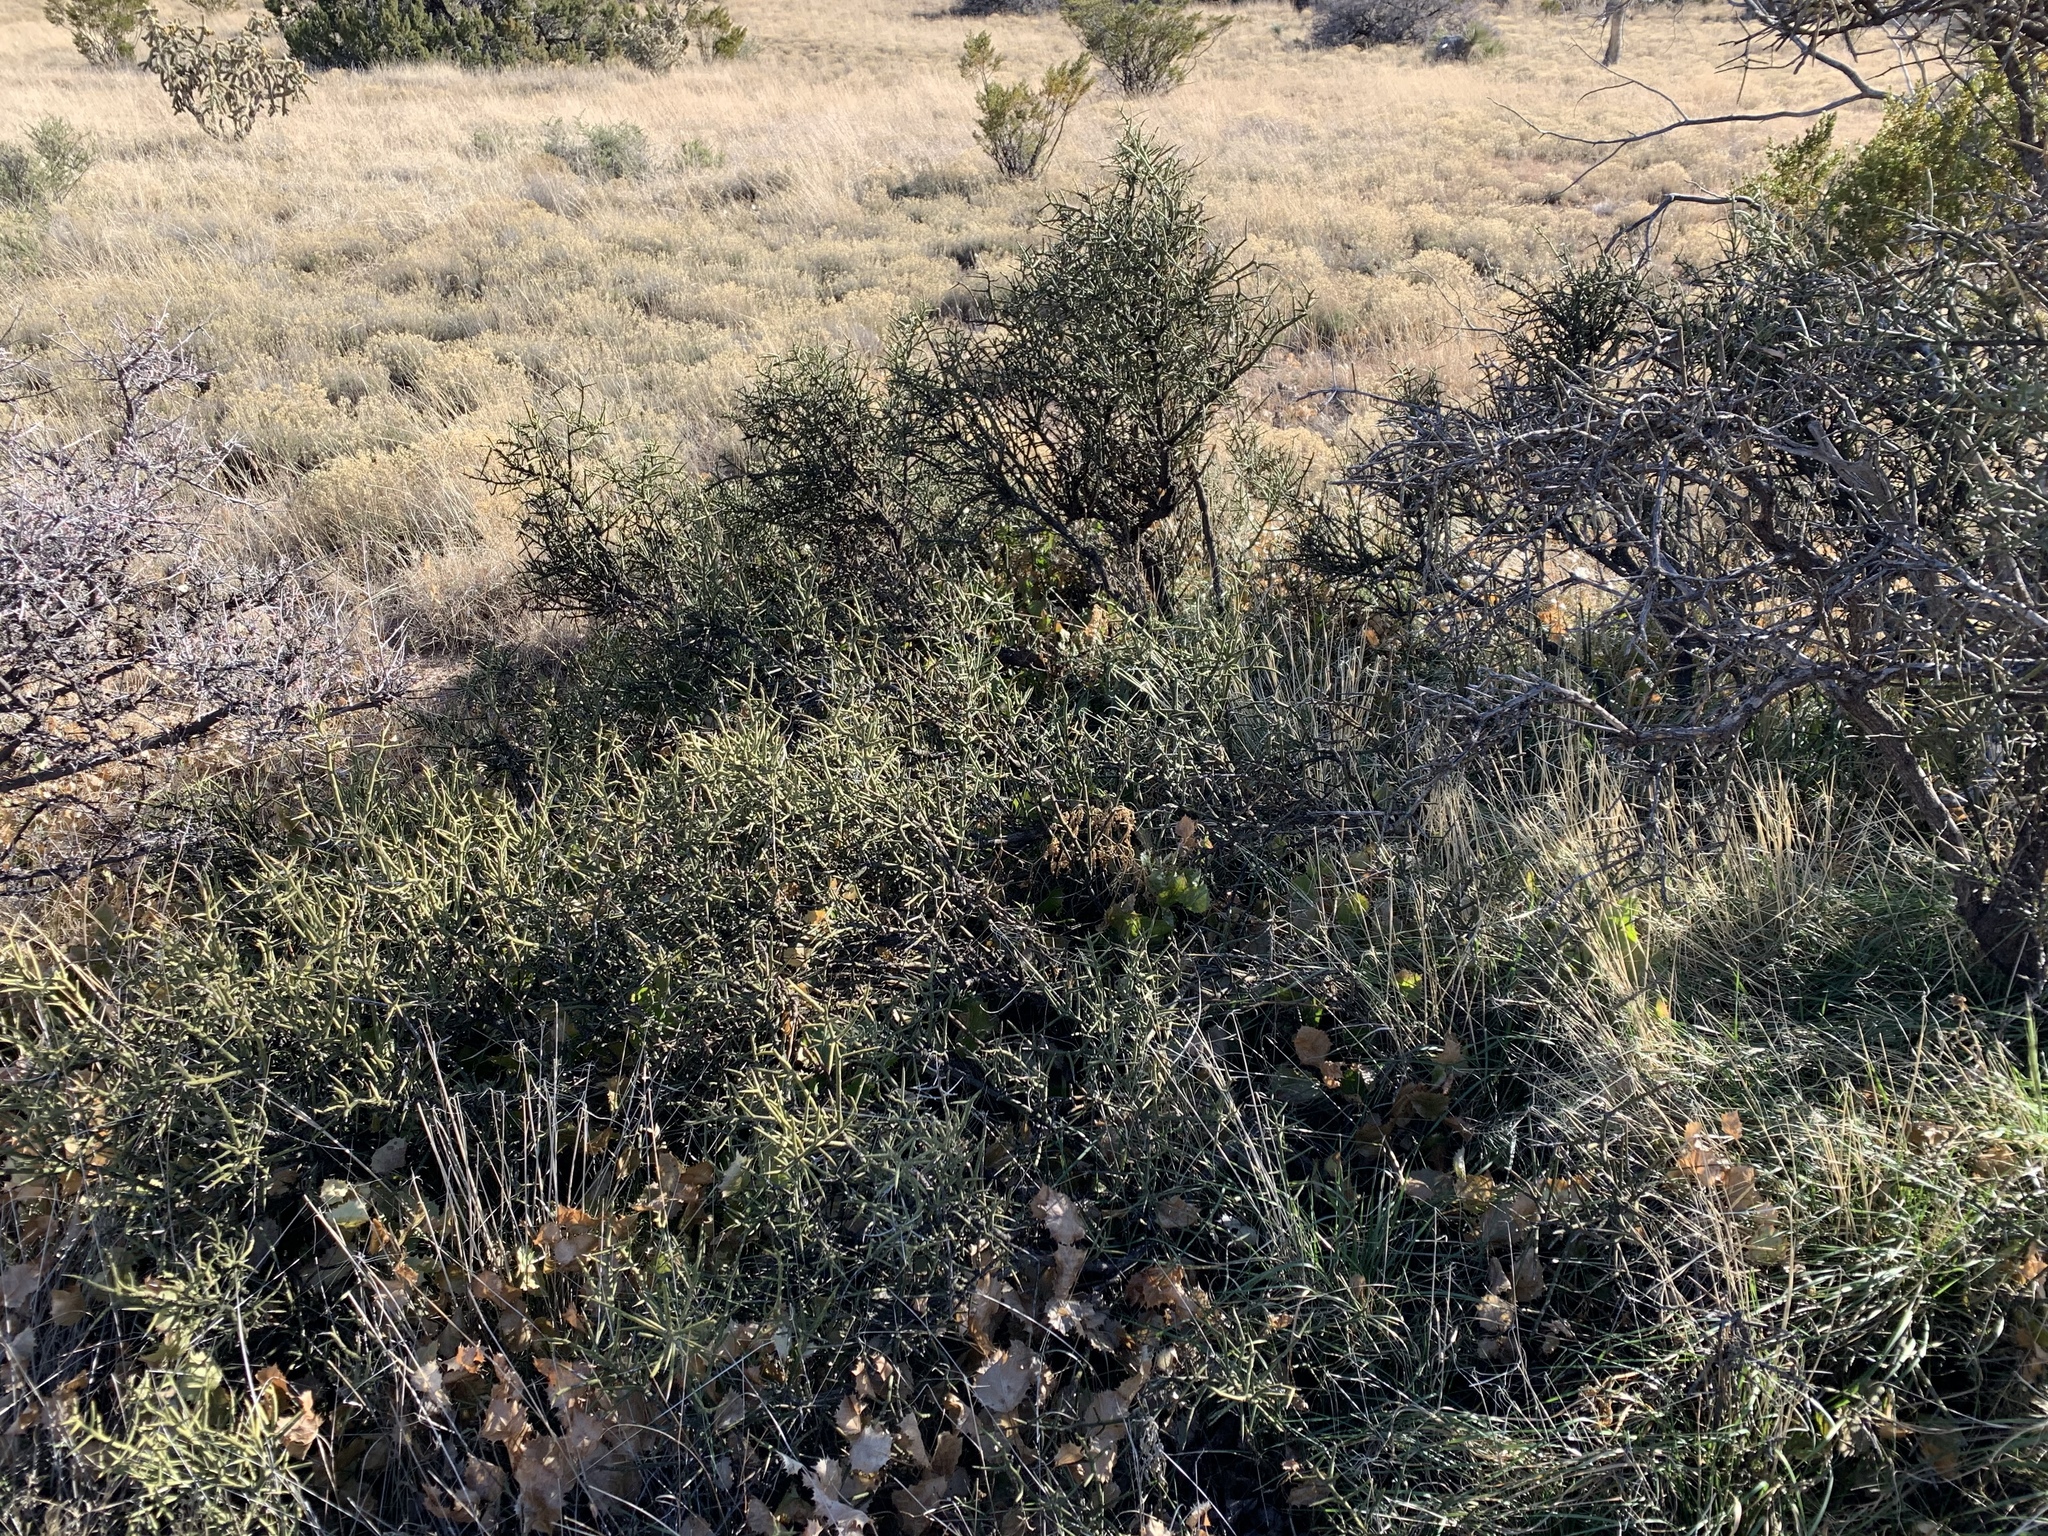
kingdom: Plantae
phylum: Tracheophyta
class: Magnoliopsida
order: Brassicales
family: Koeberliniaceae
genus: Koeberlinia
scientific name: Koeberlinia spinosa
